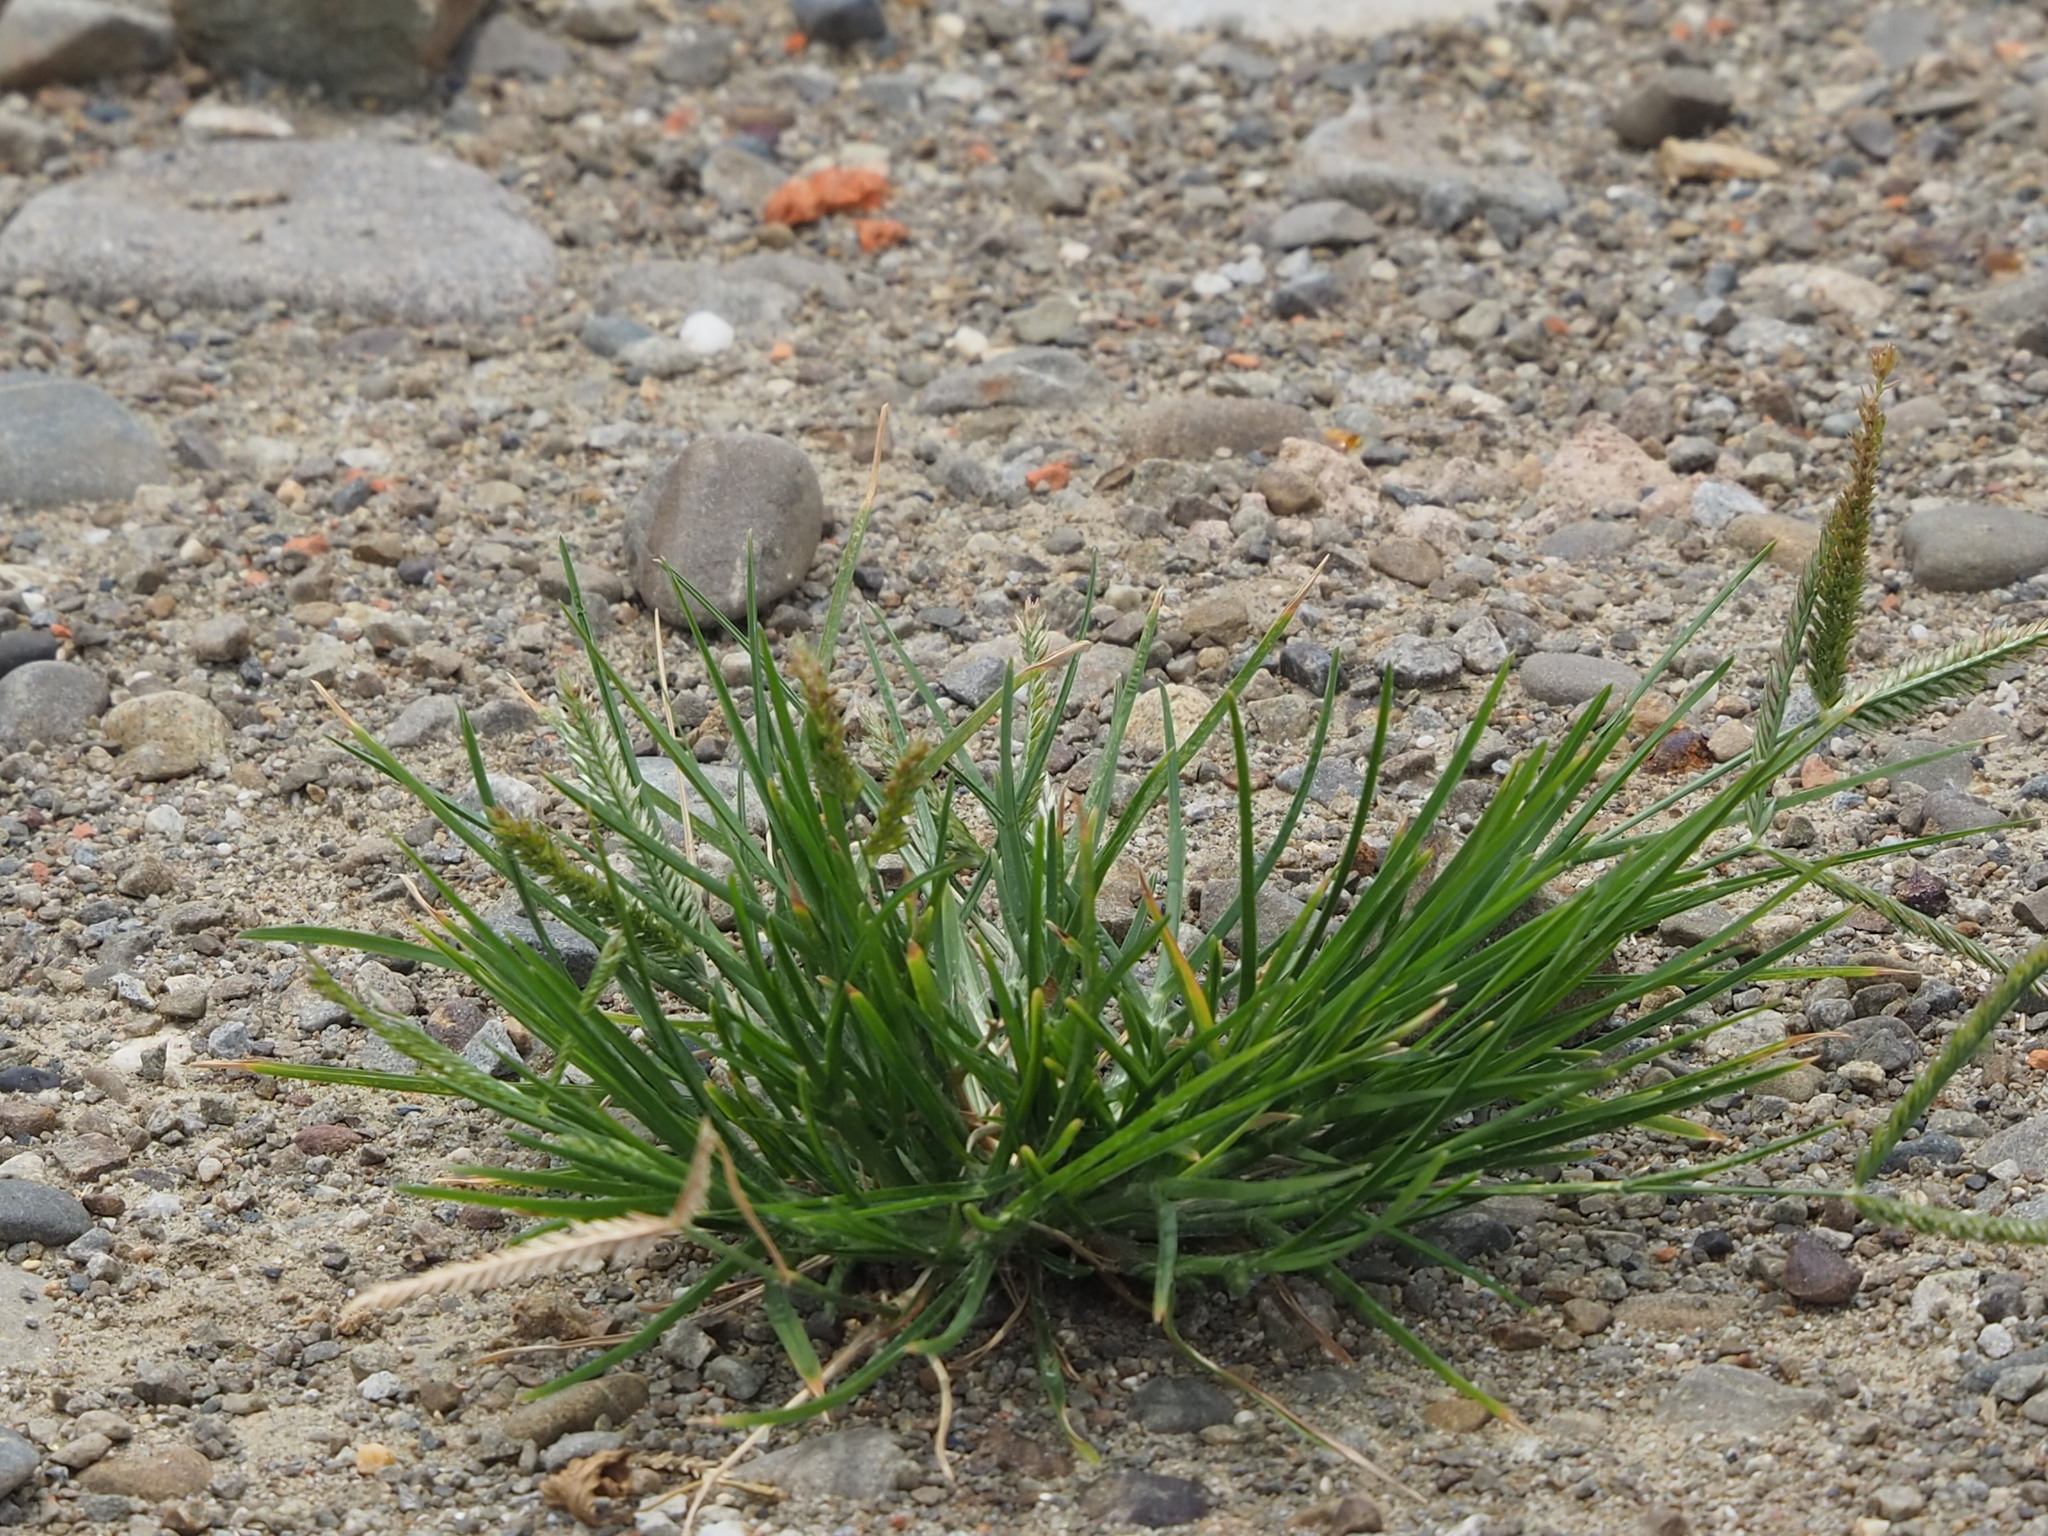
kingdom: Plantae
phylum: Tracheophyta
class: Liliopsida
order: Poales
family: Poaceae
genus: Eleusine
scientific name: Eleusine indica
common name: Yard-grass
